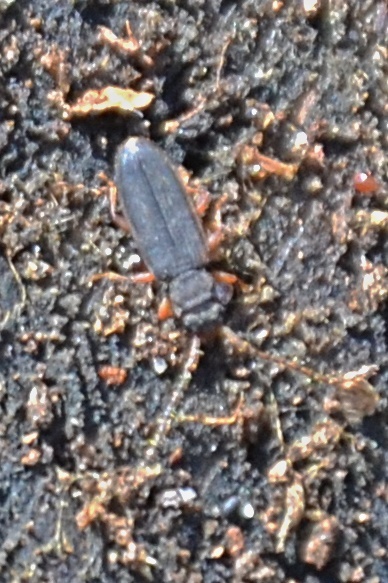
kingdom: Animalia
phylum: Arthropoda
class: Insecta
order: Coleoptera
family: Silvanidae
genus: Uleiota
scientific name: Uleiota planatus
